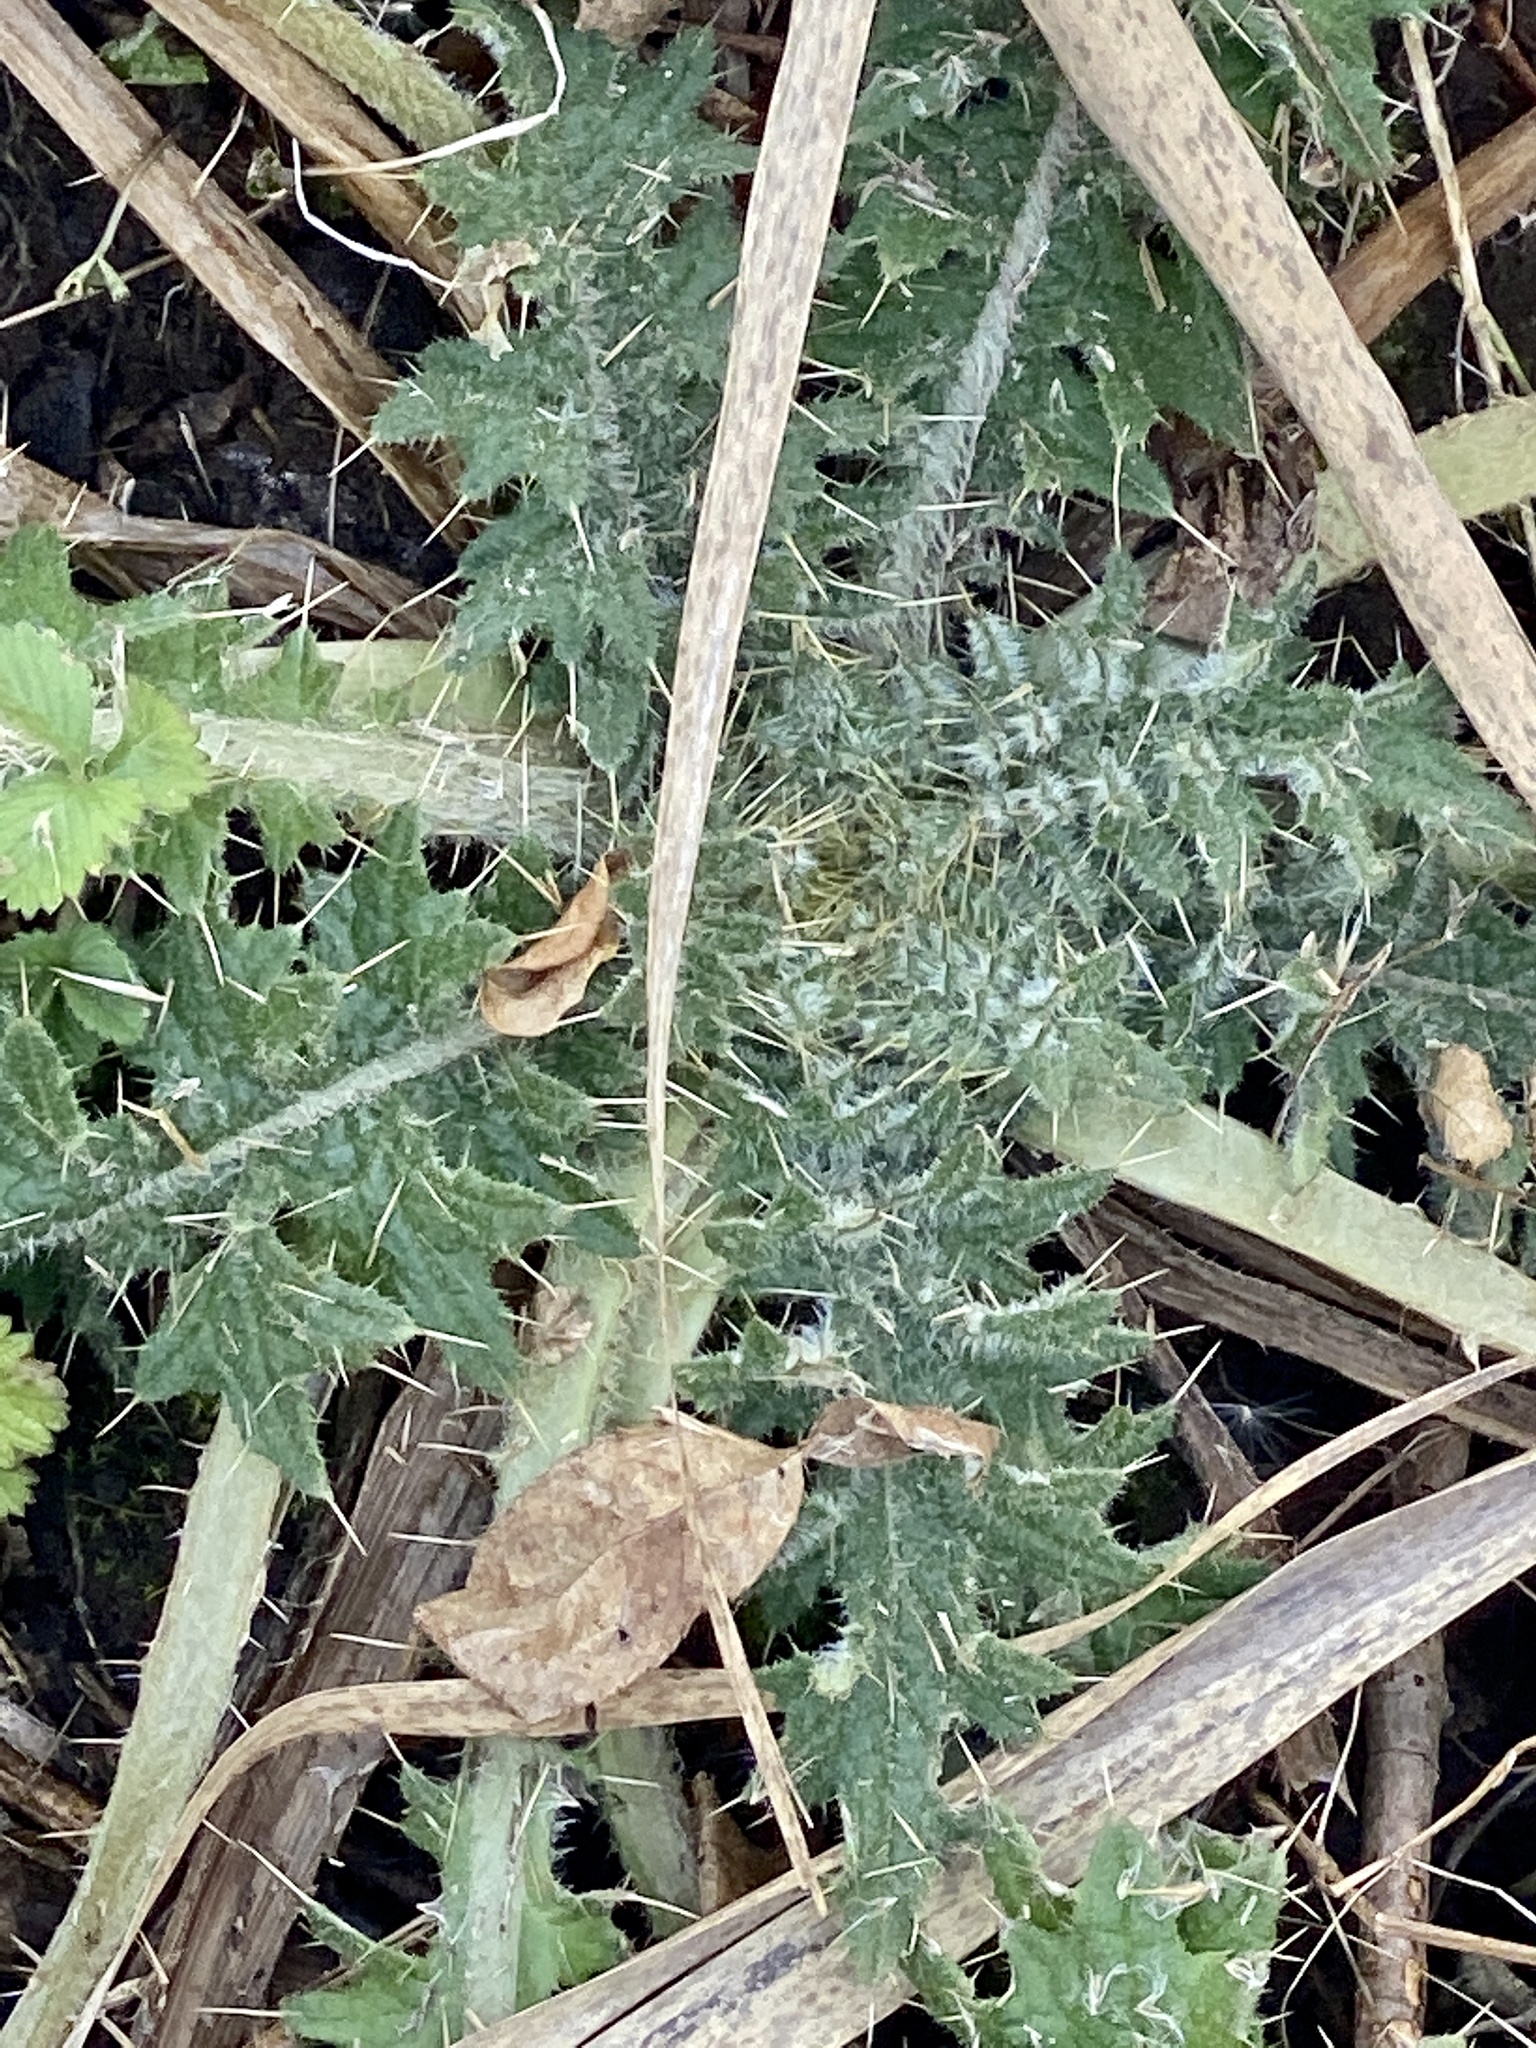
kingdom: Plantae
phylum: Tracheophyta
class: Magnoliopsida
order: Asterales
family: Asteraceae
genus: Cirsium
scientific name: Cirsium vulgare
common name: Bull thistle
